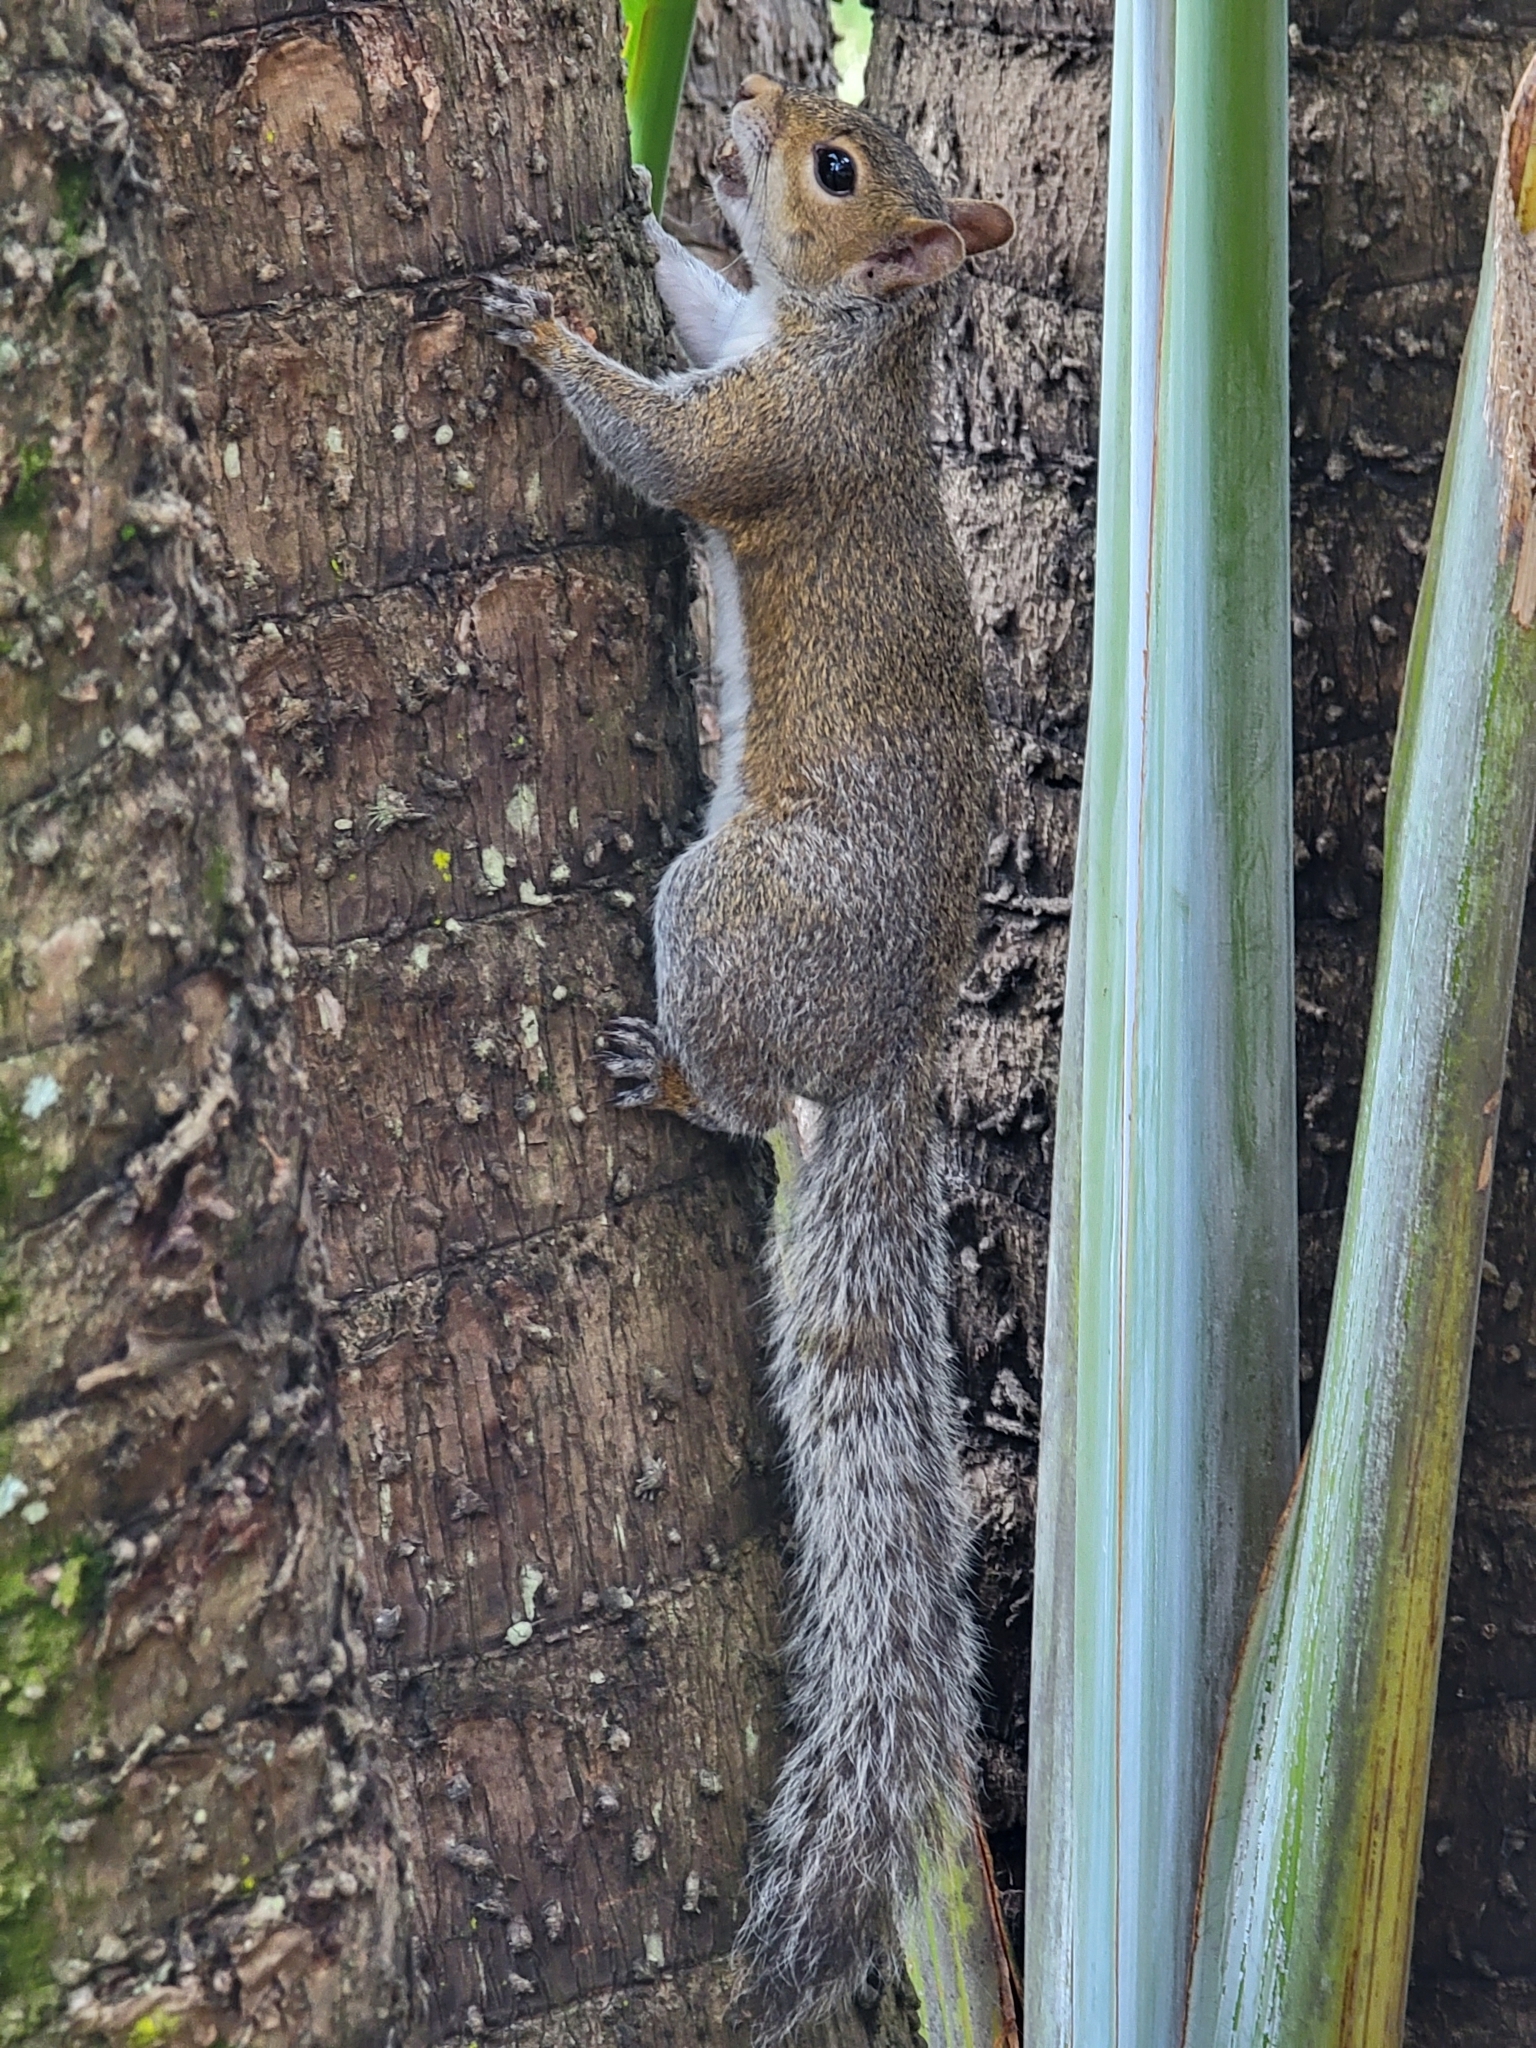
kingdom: Animalia
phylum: Chordata
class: Mammalia
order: Rodentia
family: Sciuridae
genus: Sciurus
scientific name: Sciurus carolinensis
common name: Eastern gray squirrel
